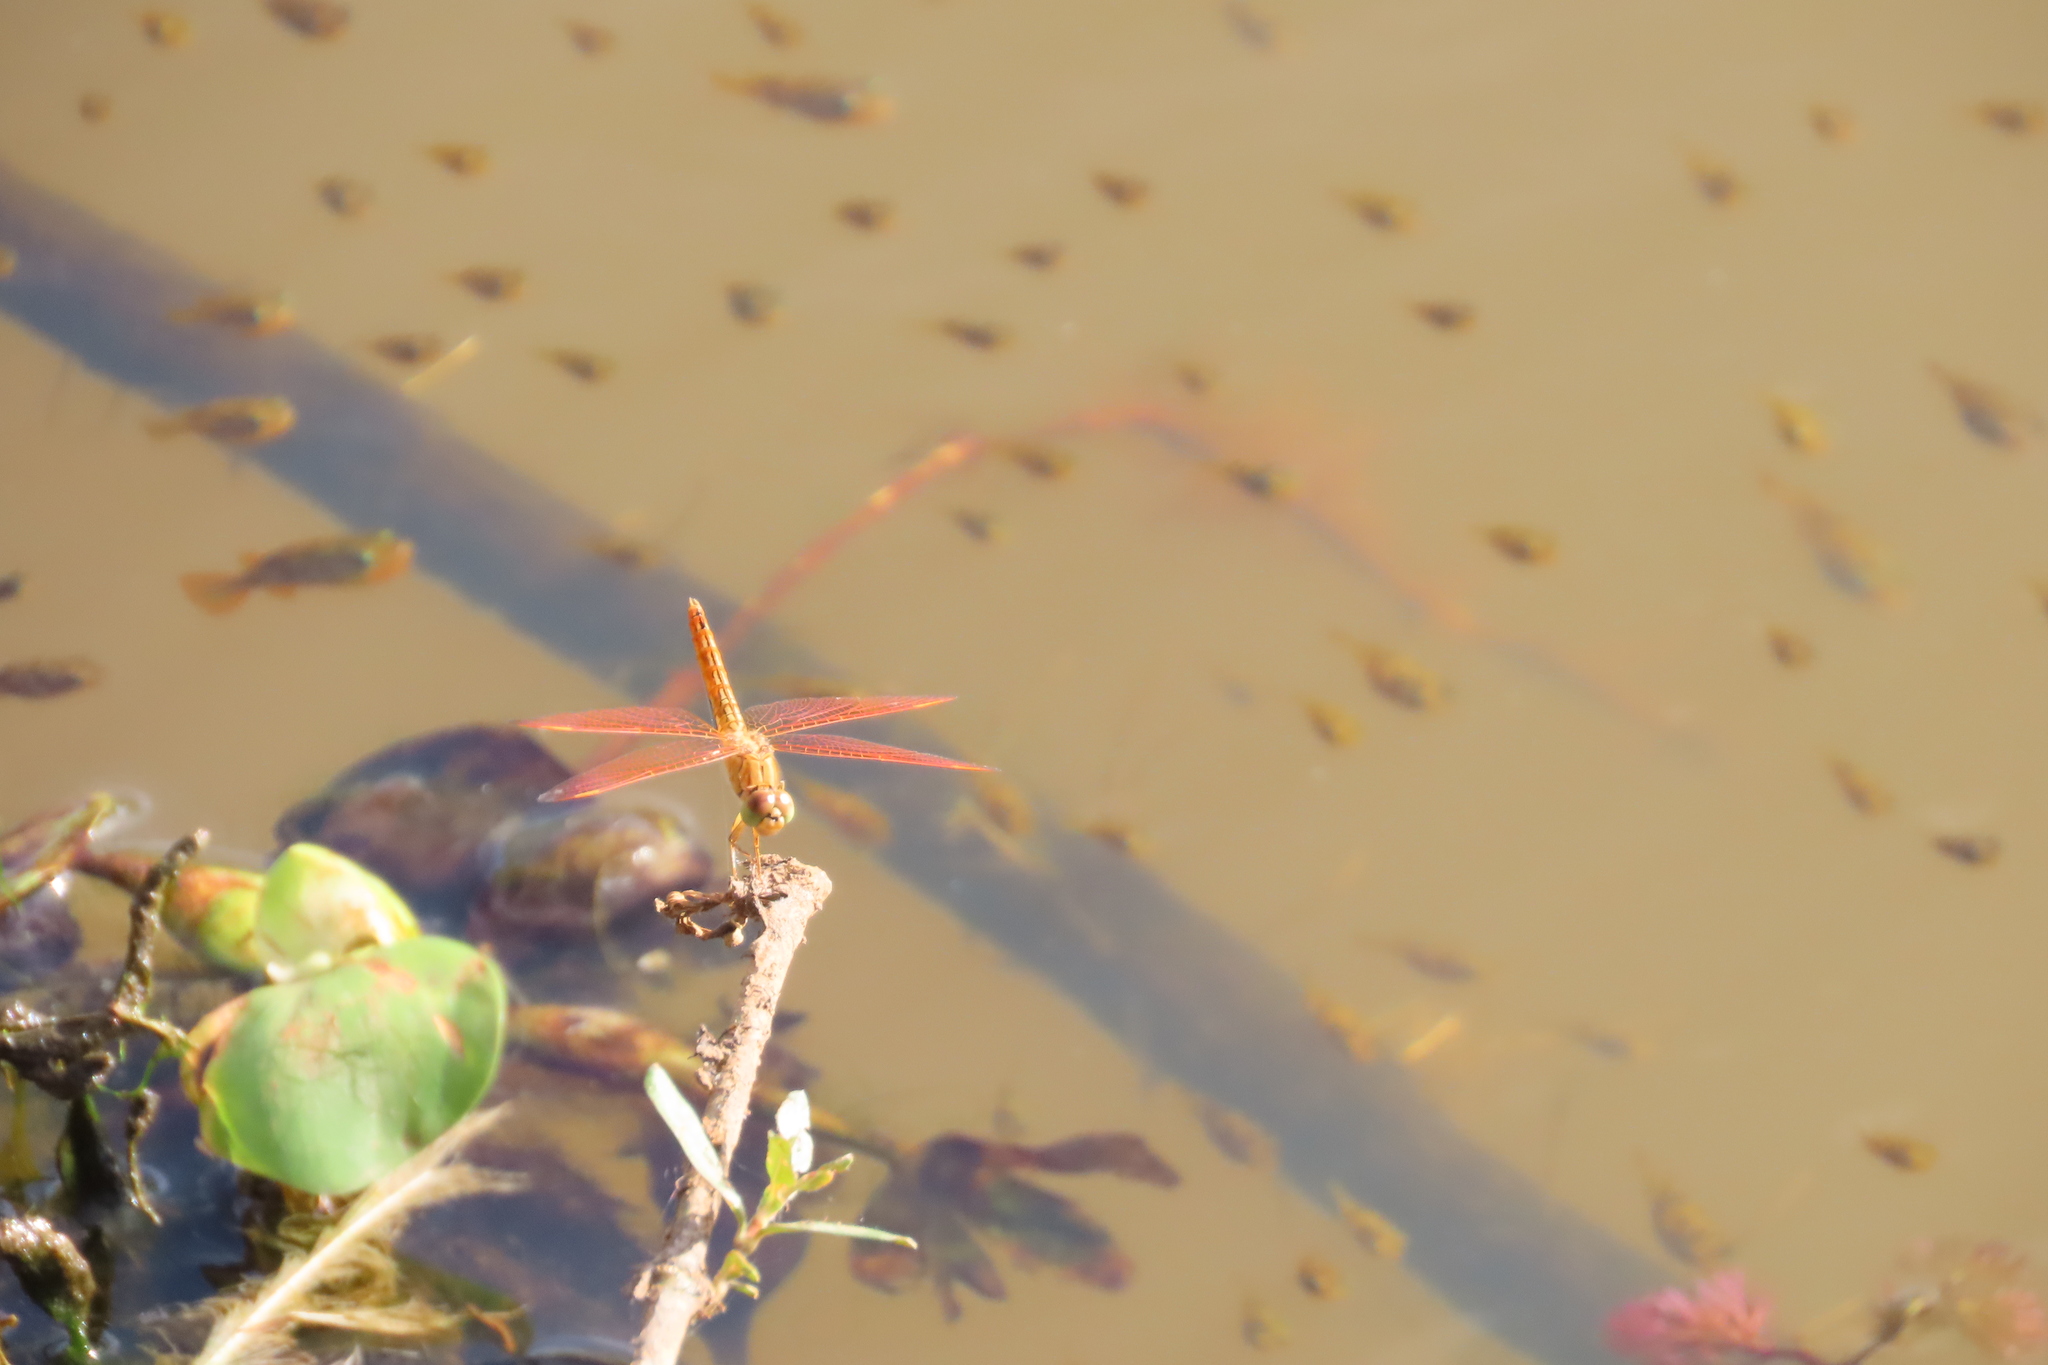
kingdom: Animalia
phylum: Arthropoda
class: Insecta
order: Odonata
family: Libellulidae
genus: Brachythemis
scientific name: Brachythemis contaminata
